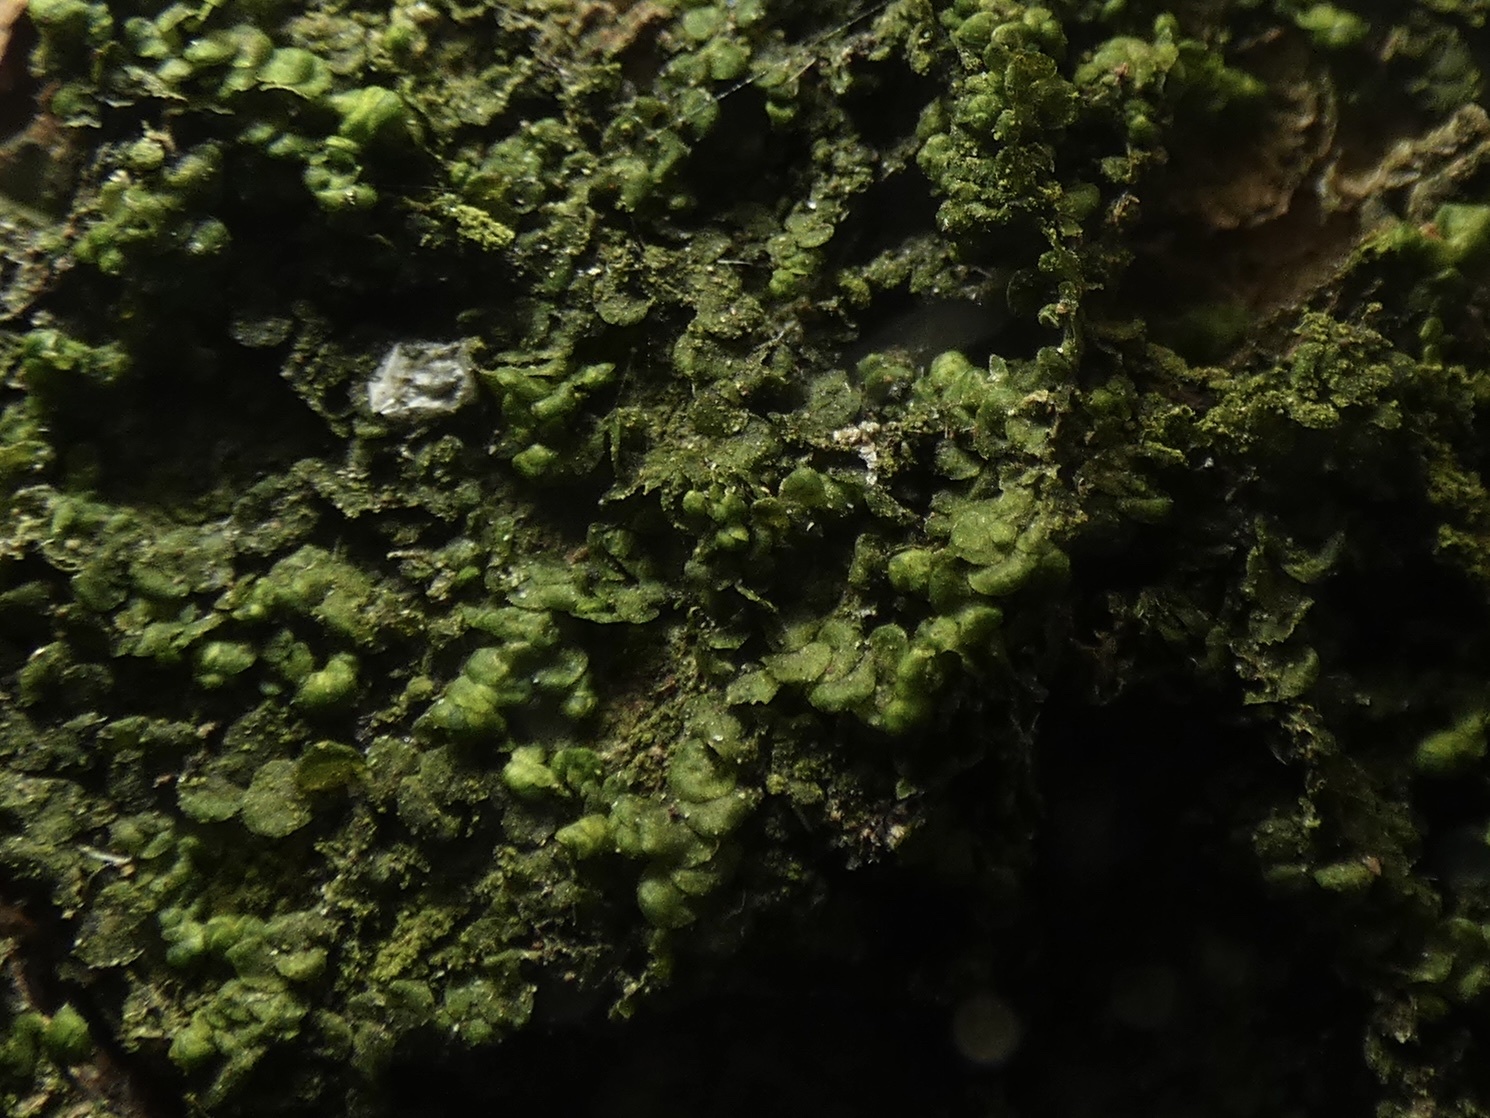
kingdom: Plantae
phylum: Marchantiophyta
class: Jungermanniopsida
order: Porellales
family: Radulaceae
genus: Radula
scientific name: Radula complanata
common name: Flat-leaved scalewort
